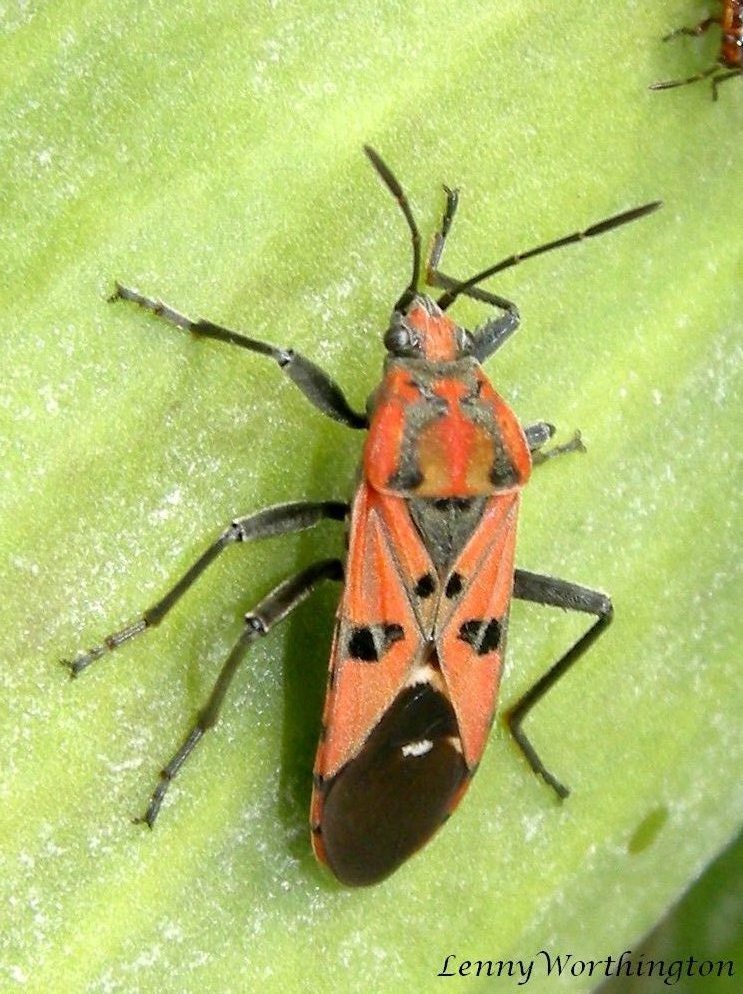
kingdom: Animalia
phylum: Arthropoda
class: Insecta
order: Hemiptera
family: Lygaeidae
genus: Spilostethus
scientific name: Spilostethus pandurus
